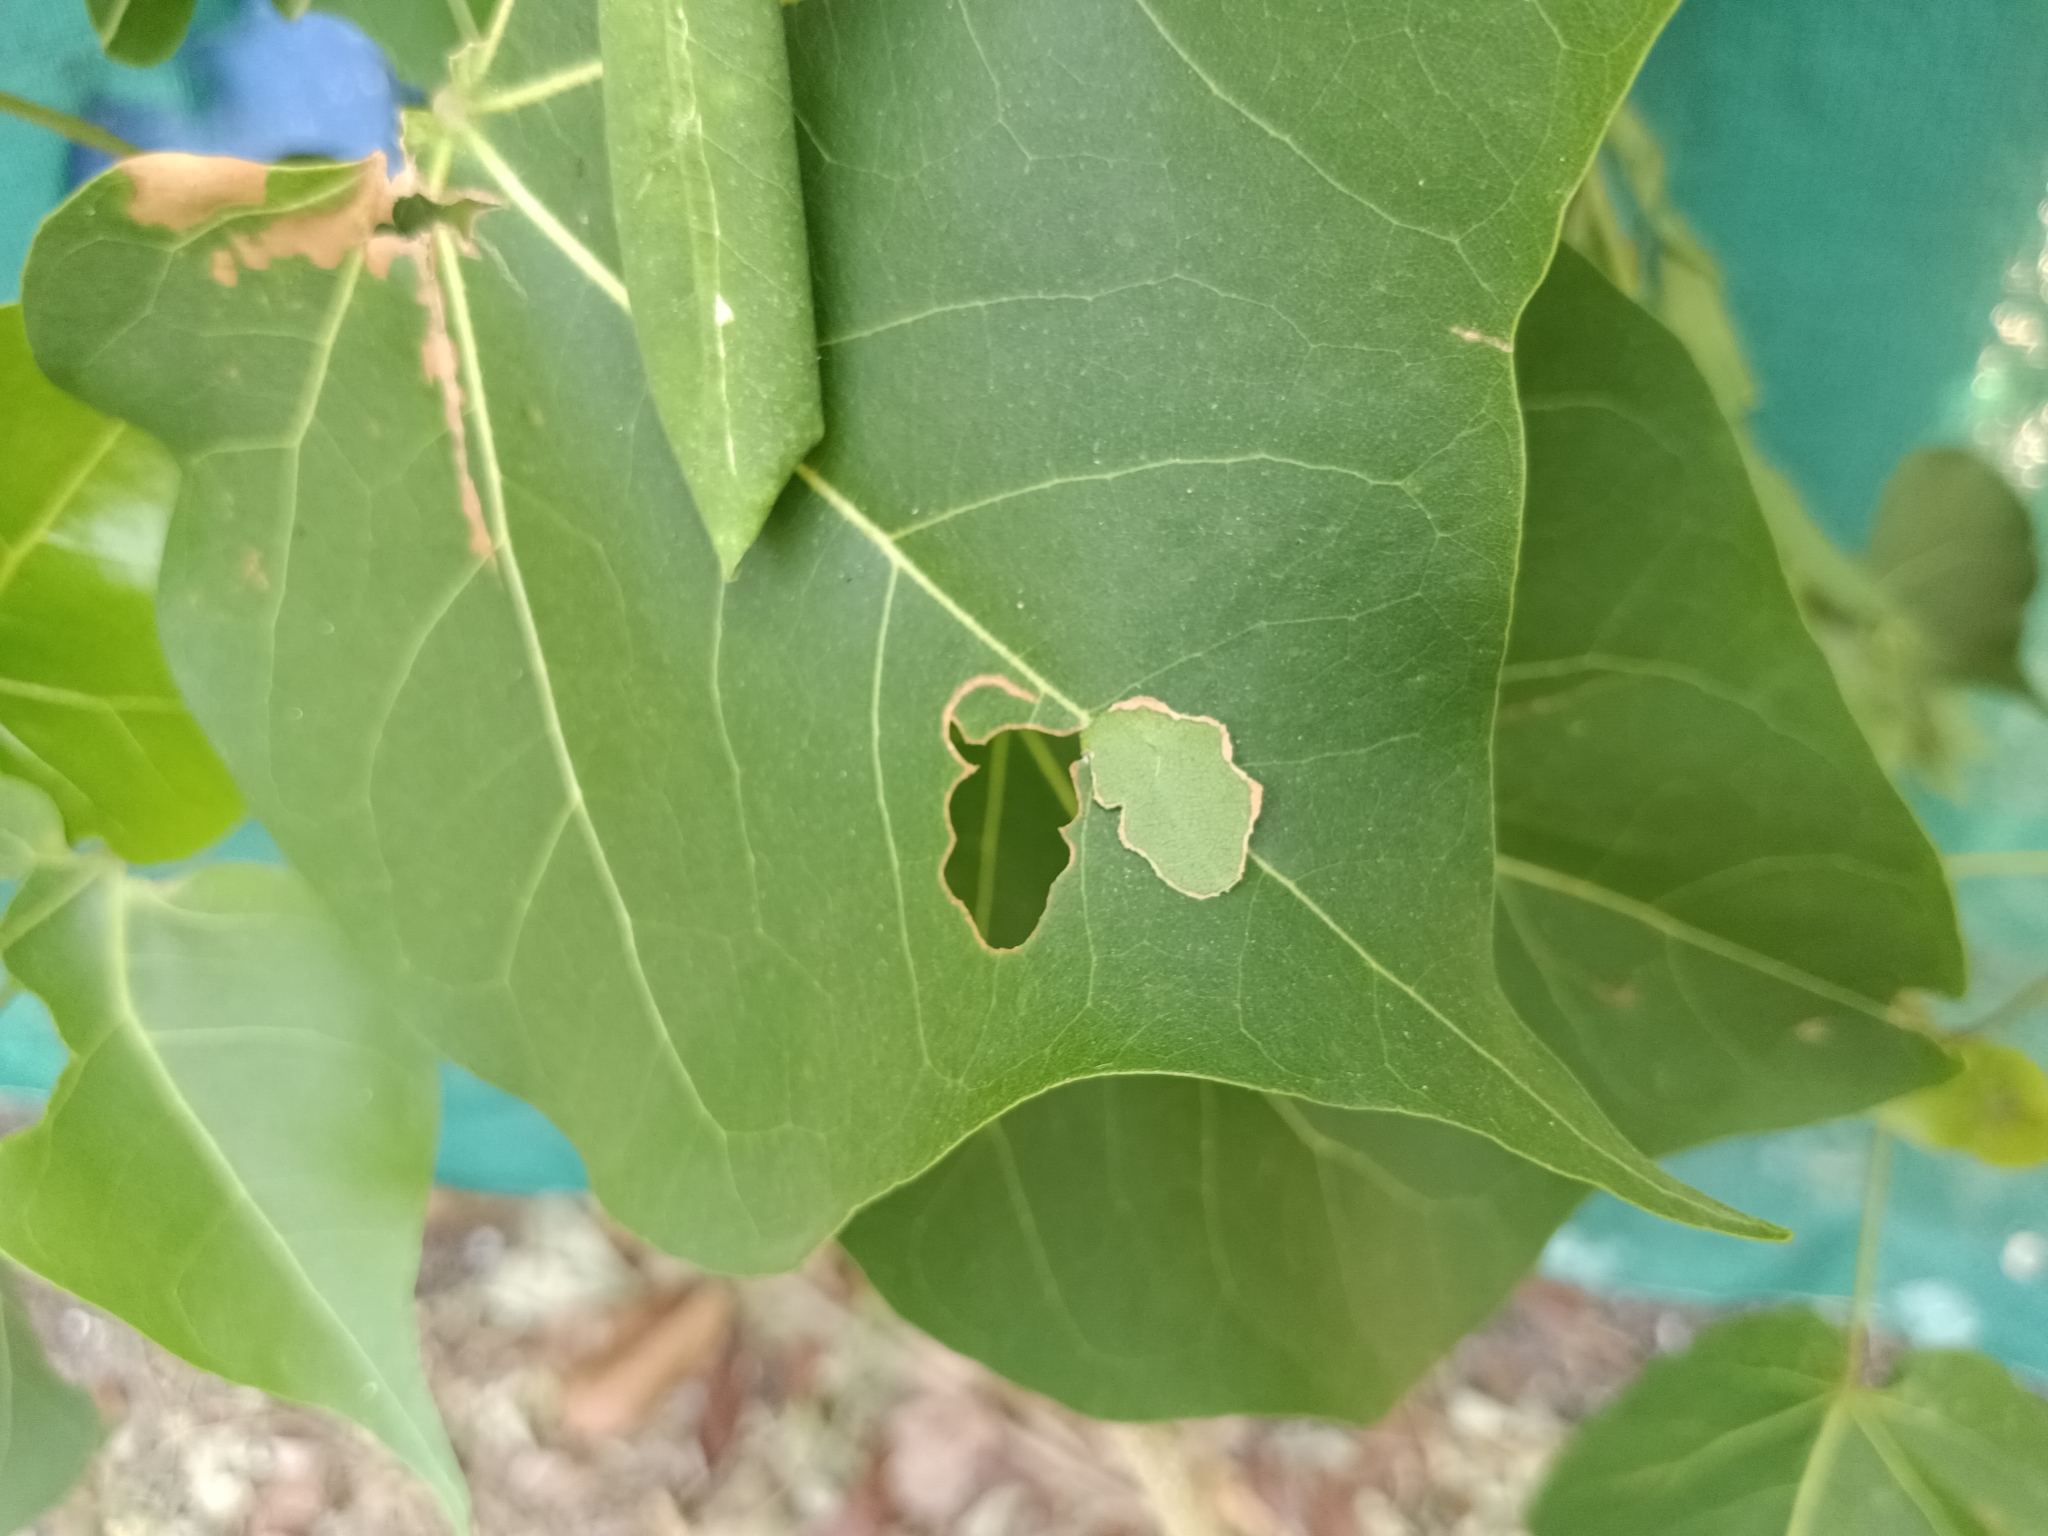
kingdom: Animalia
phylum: Arthropoda
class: Insecta
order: Lepidoptera
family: Hesperiidae
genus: Coladenia
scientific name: Coladenia
